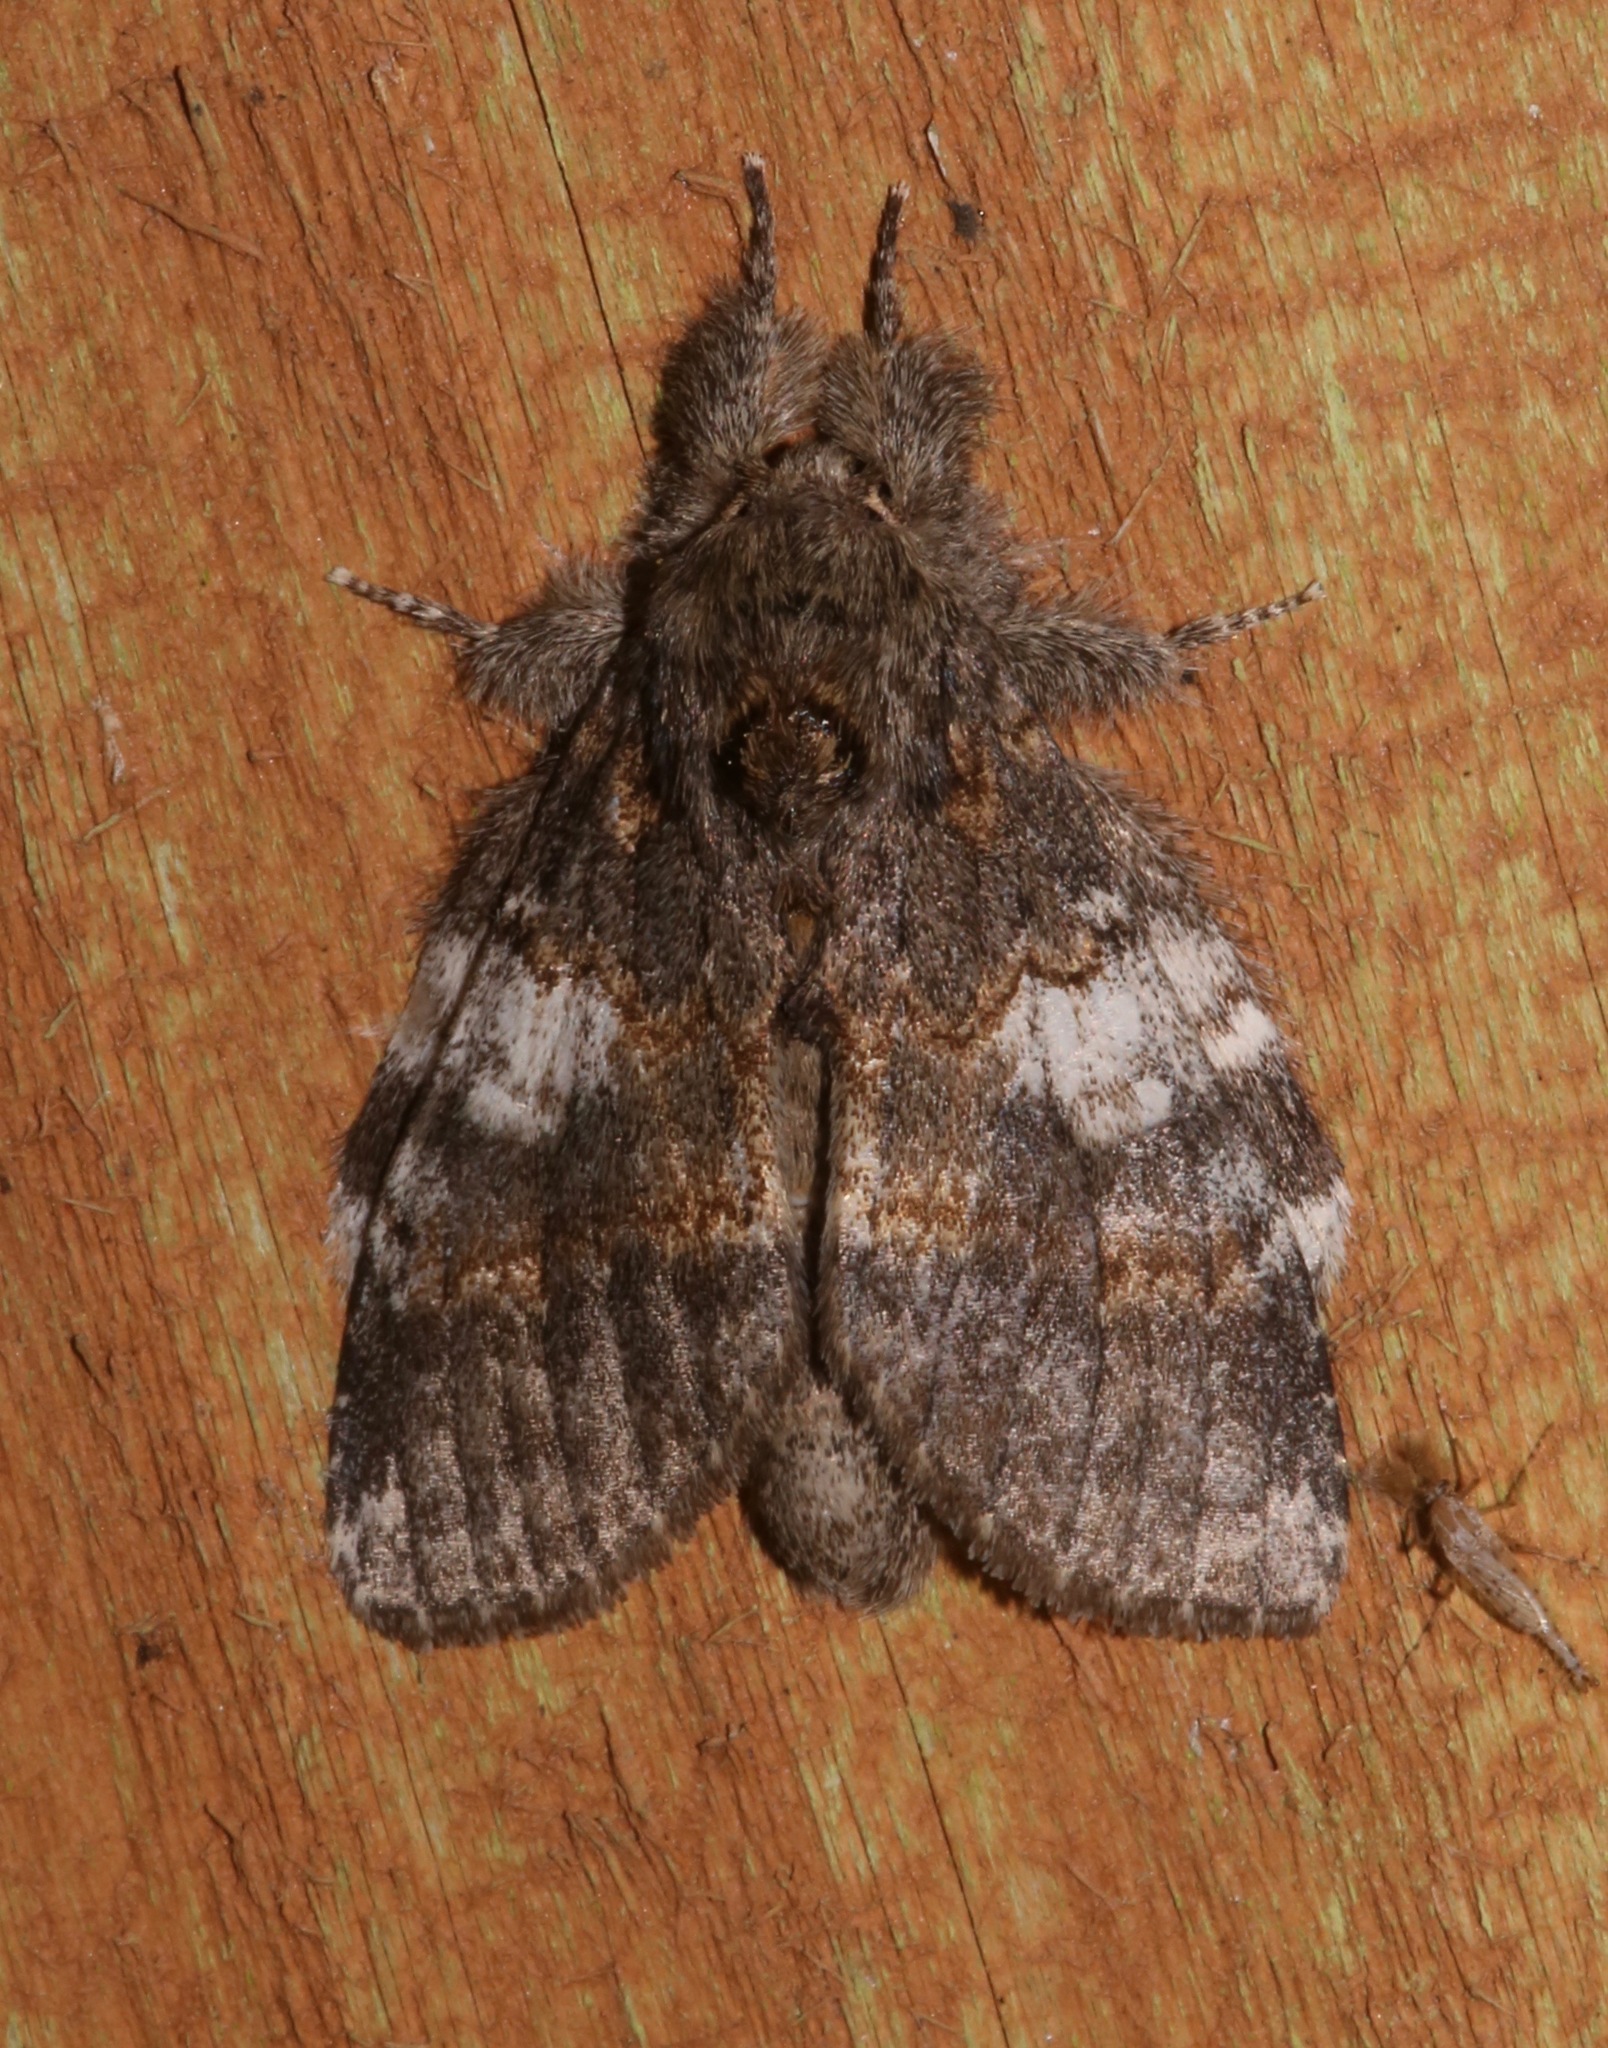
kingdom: Animalia
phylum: Arthropoda
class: Insecta
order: Lepidoptera
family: Notodontidae
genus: Peridea
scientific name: Peridea angulosa
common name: Angulose prominent
